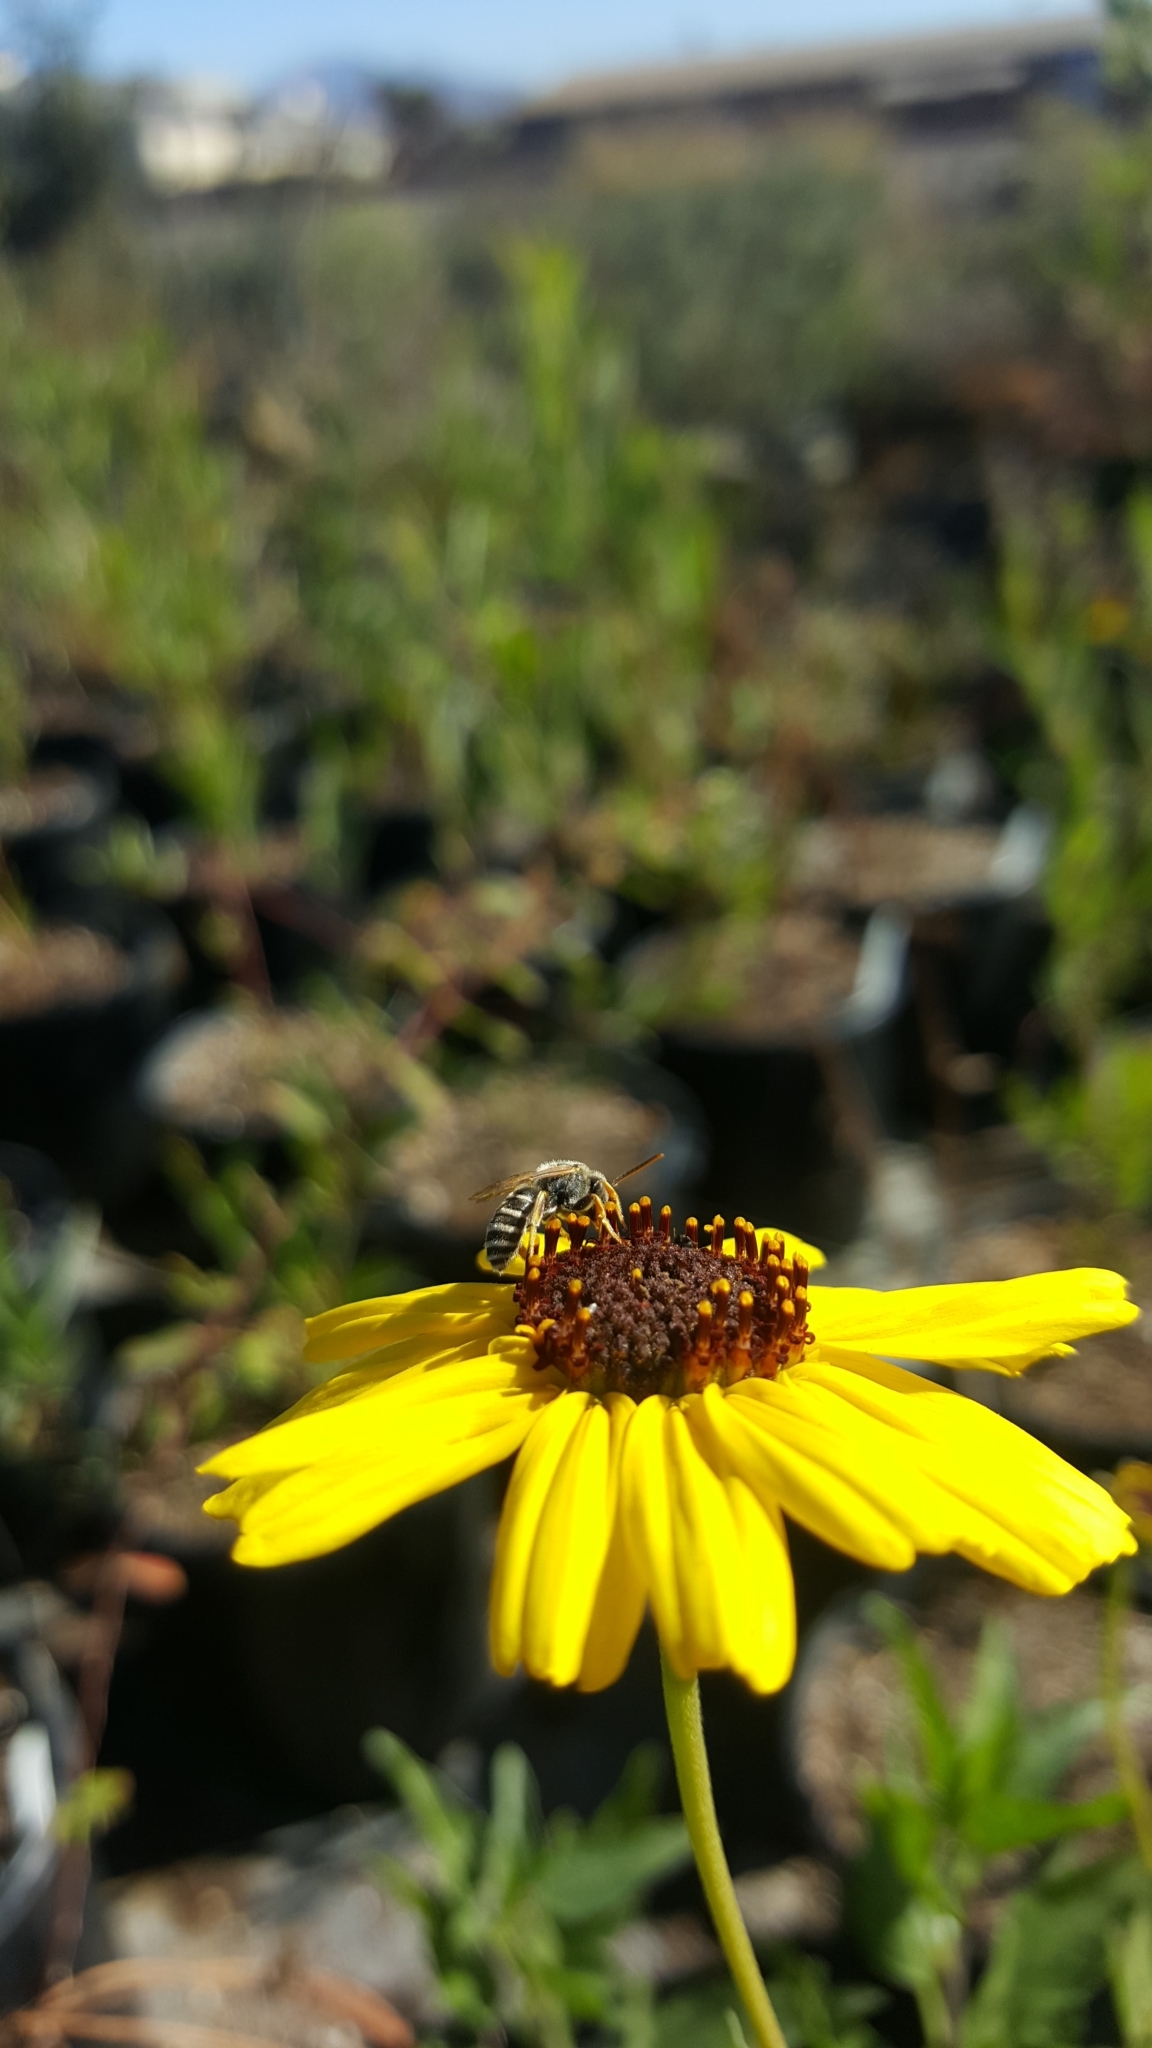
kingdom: Animalia
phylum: Arthropoda
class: Insecta
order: Hymenoptera
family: Halictidae
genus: Halictus
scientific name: Halictus ligatus
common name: Ligated furrow bee
